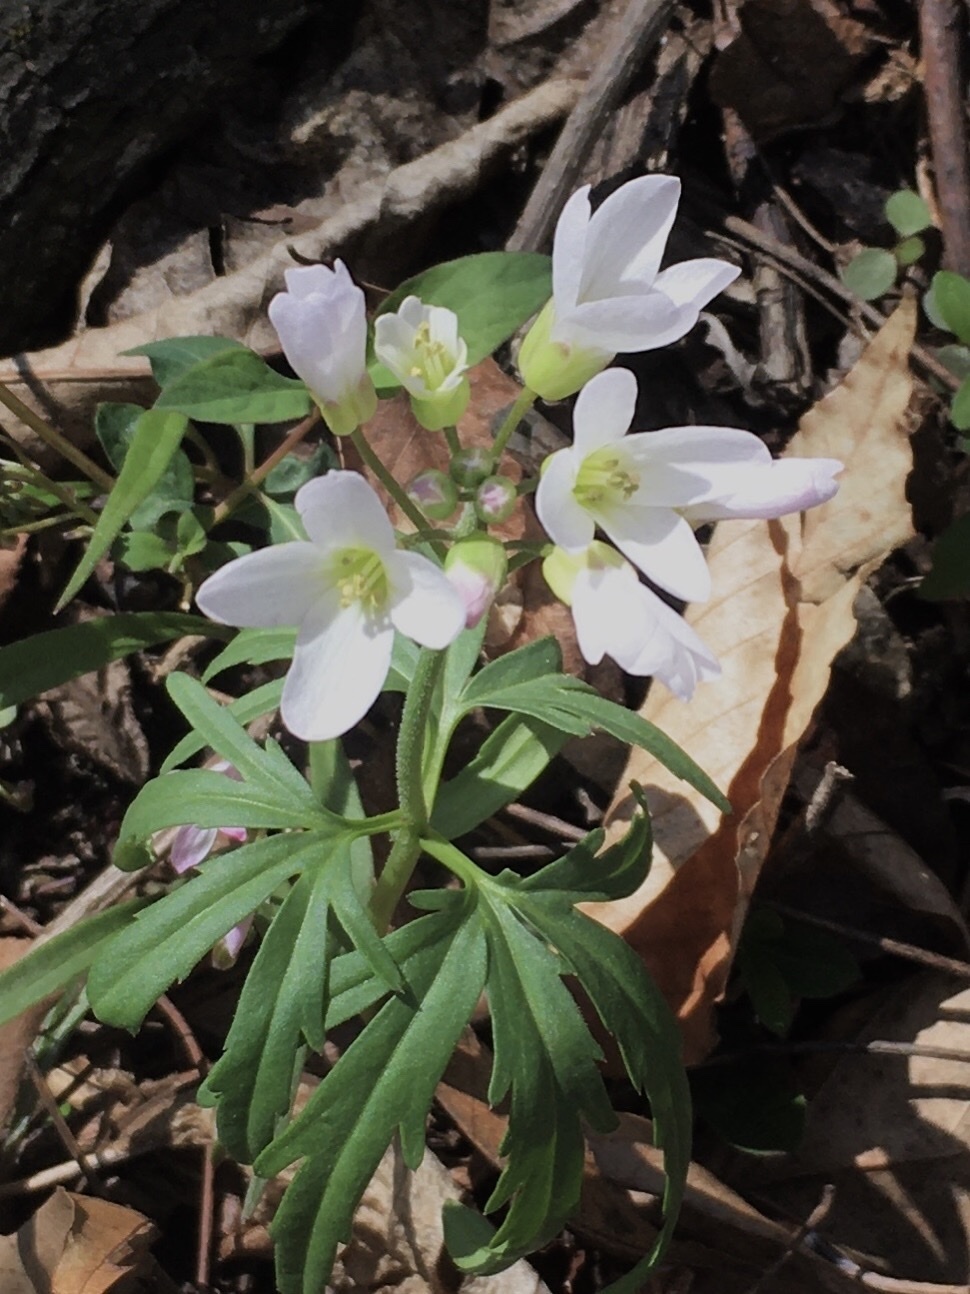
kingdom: Plantae
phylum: Tracheophyta
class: Magnoliopsida
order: Brassicales
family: Brassicaceae
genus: Cardamine
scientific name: Cardamine concatenata
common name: Cut-leaf toothcup
